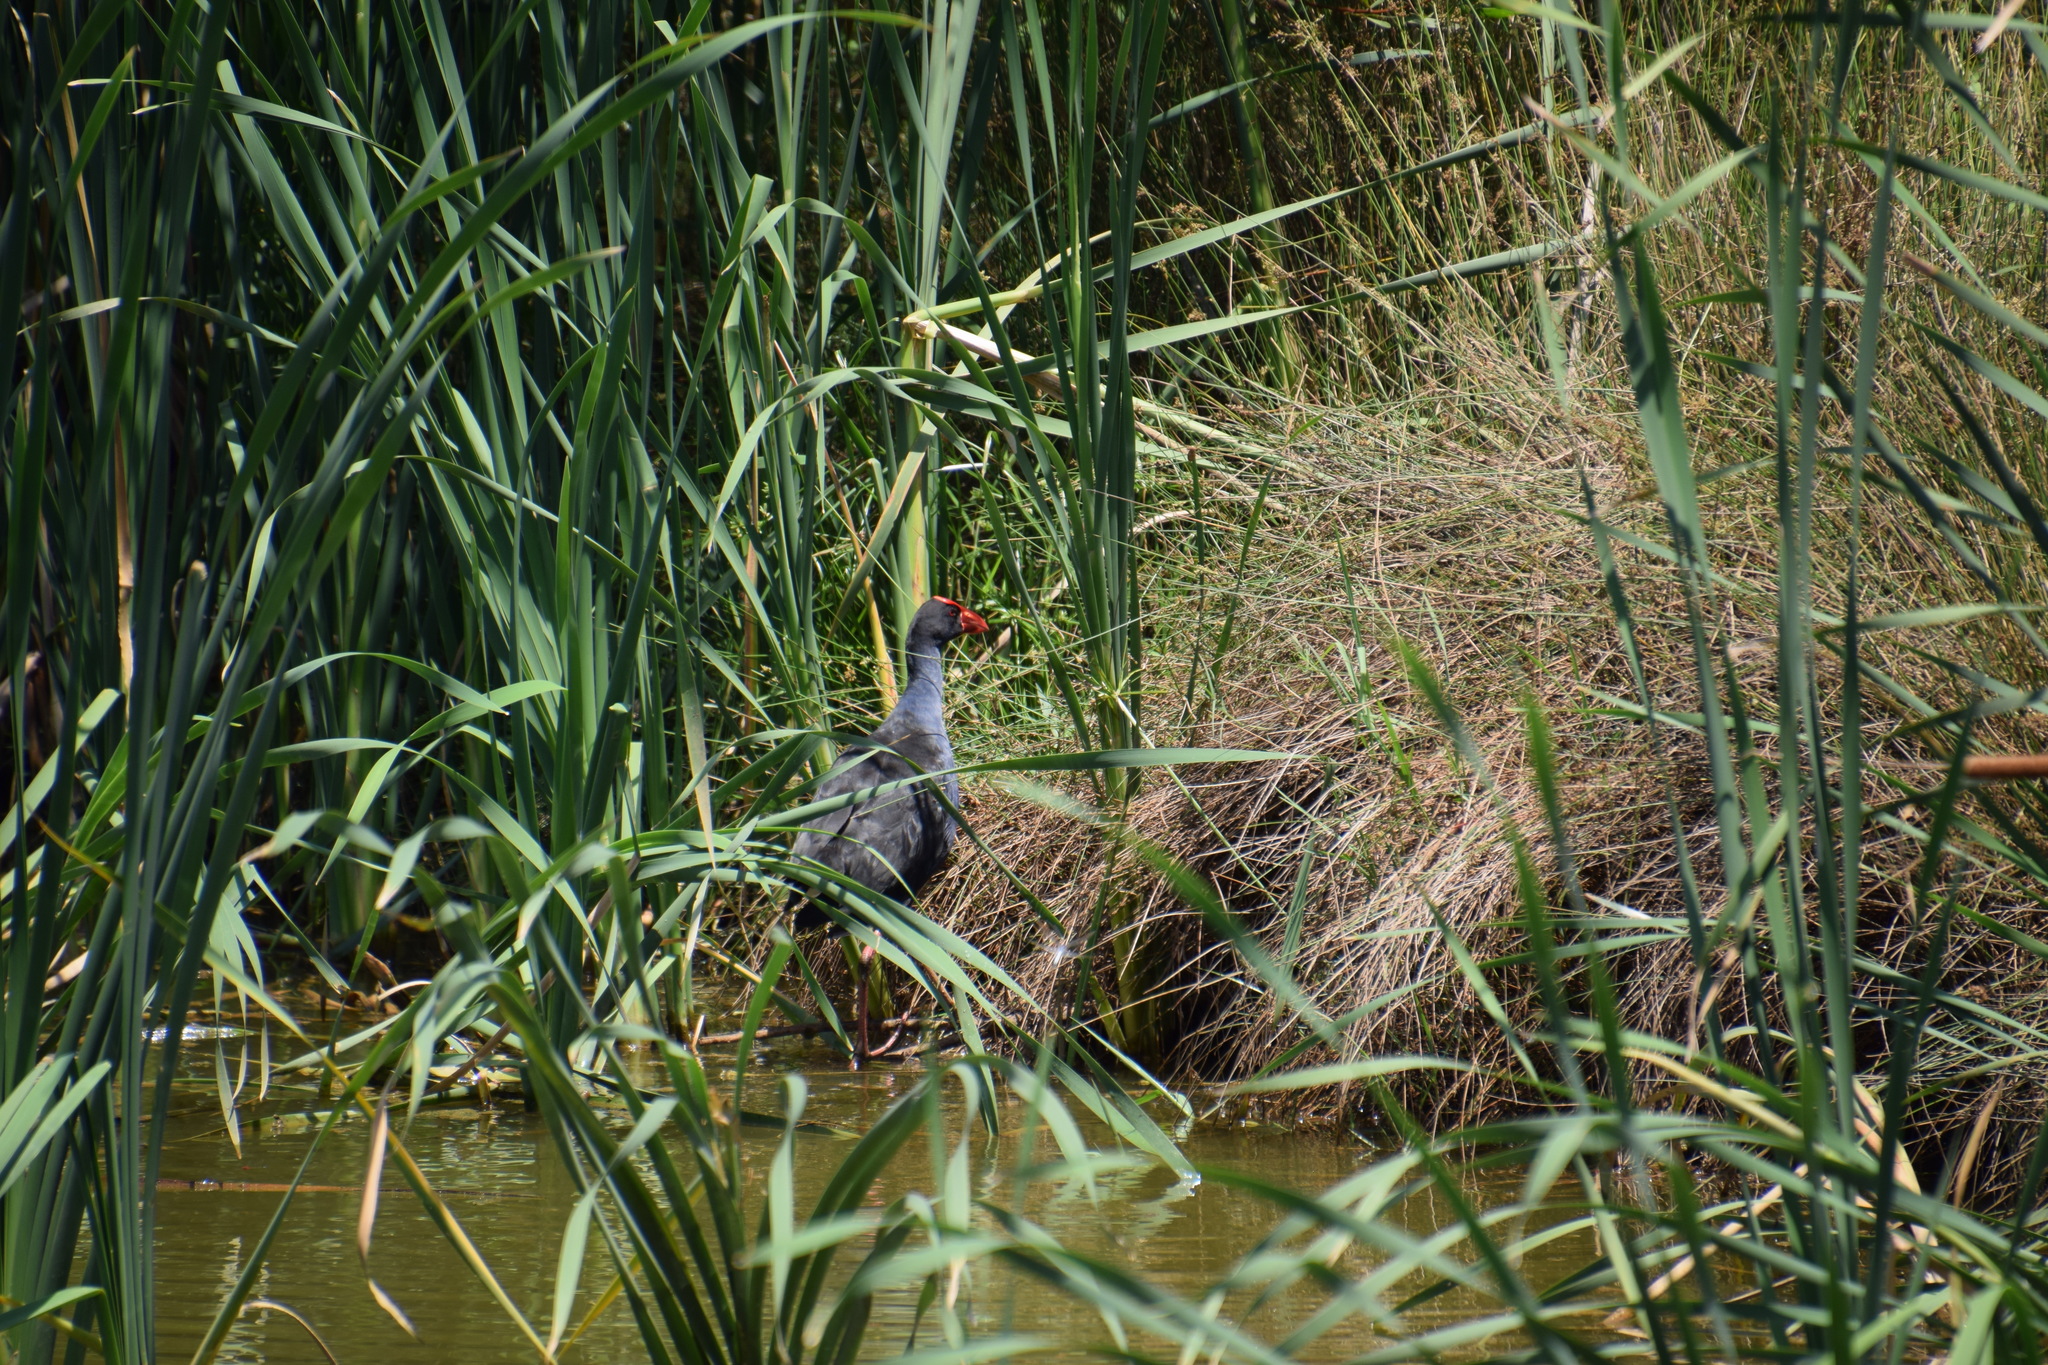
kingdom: Animalia
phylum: Chordata
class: Aves
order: Gruiformes
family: Rallidae
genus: Porphyrio
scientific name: Porphyrio melanotus
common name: Australasian swamphen
